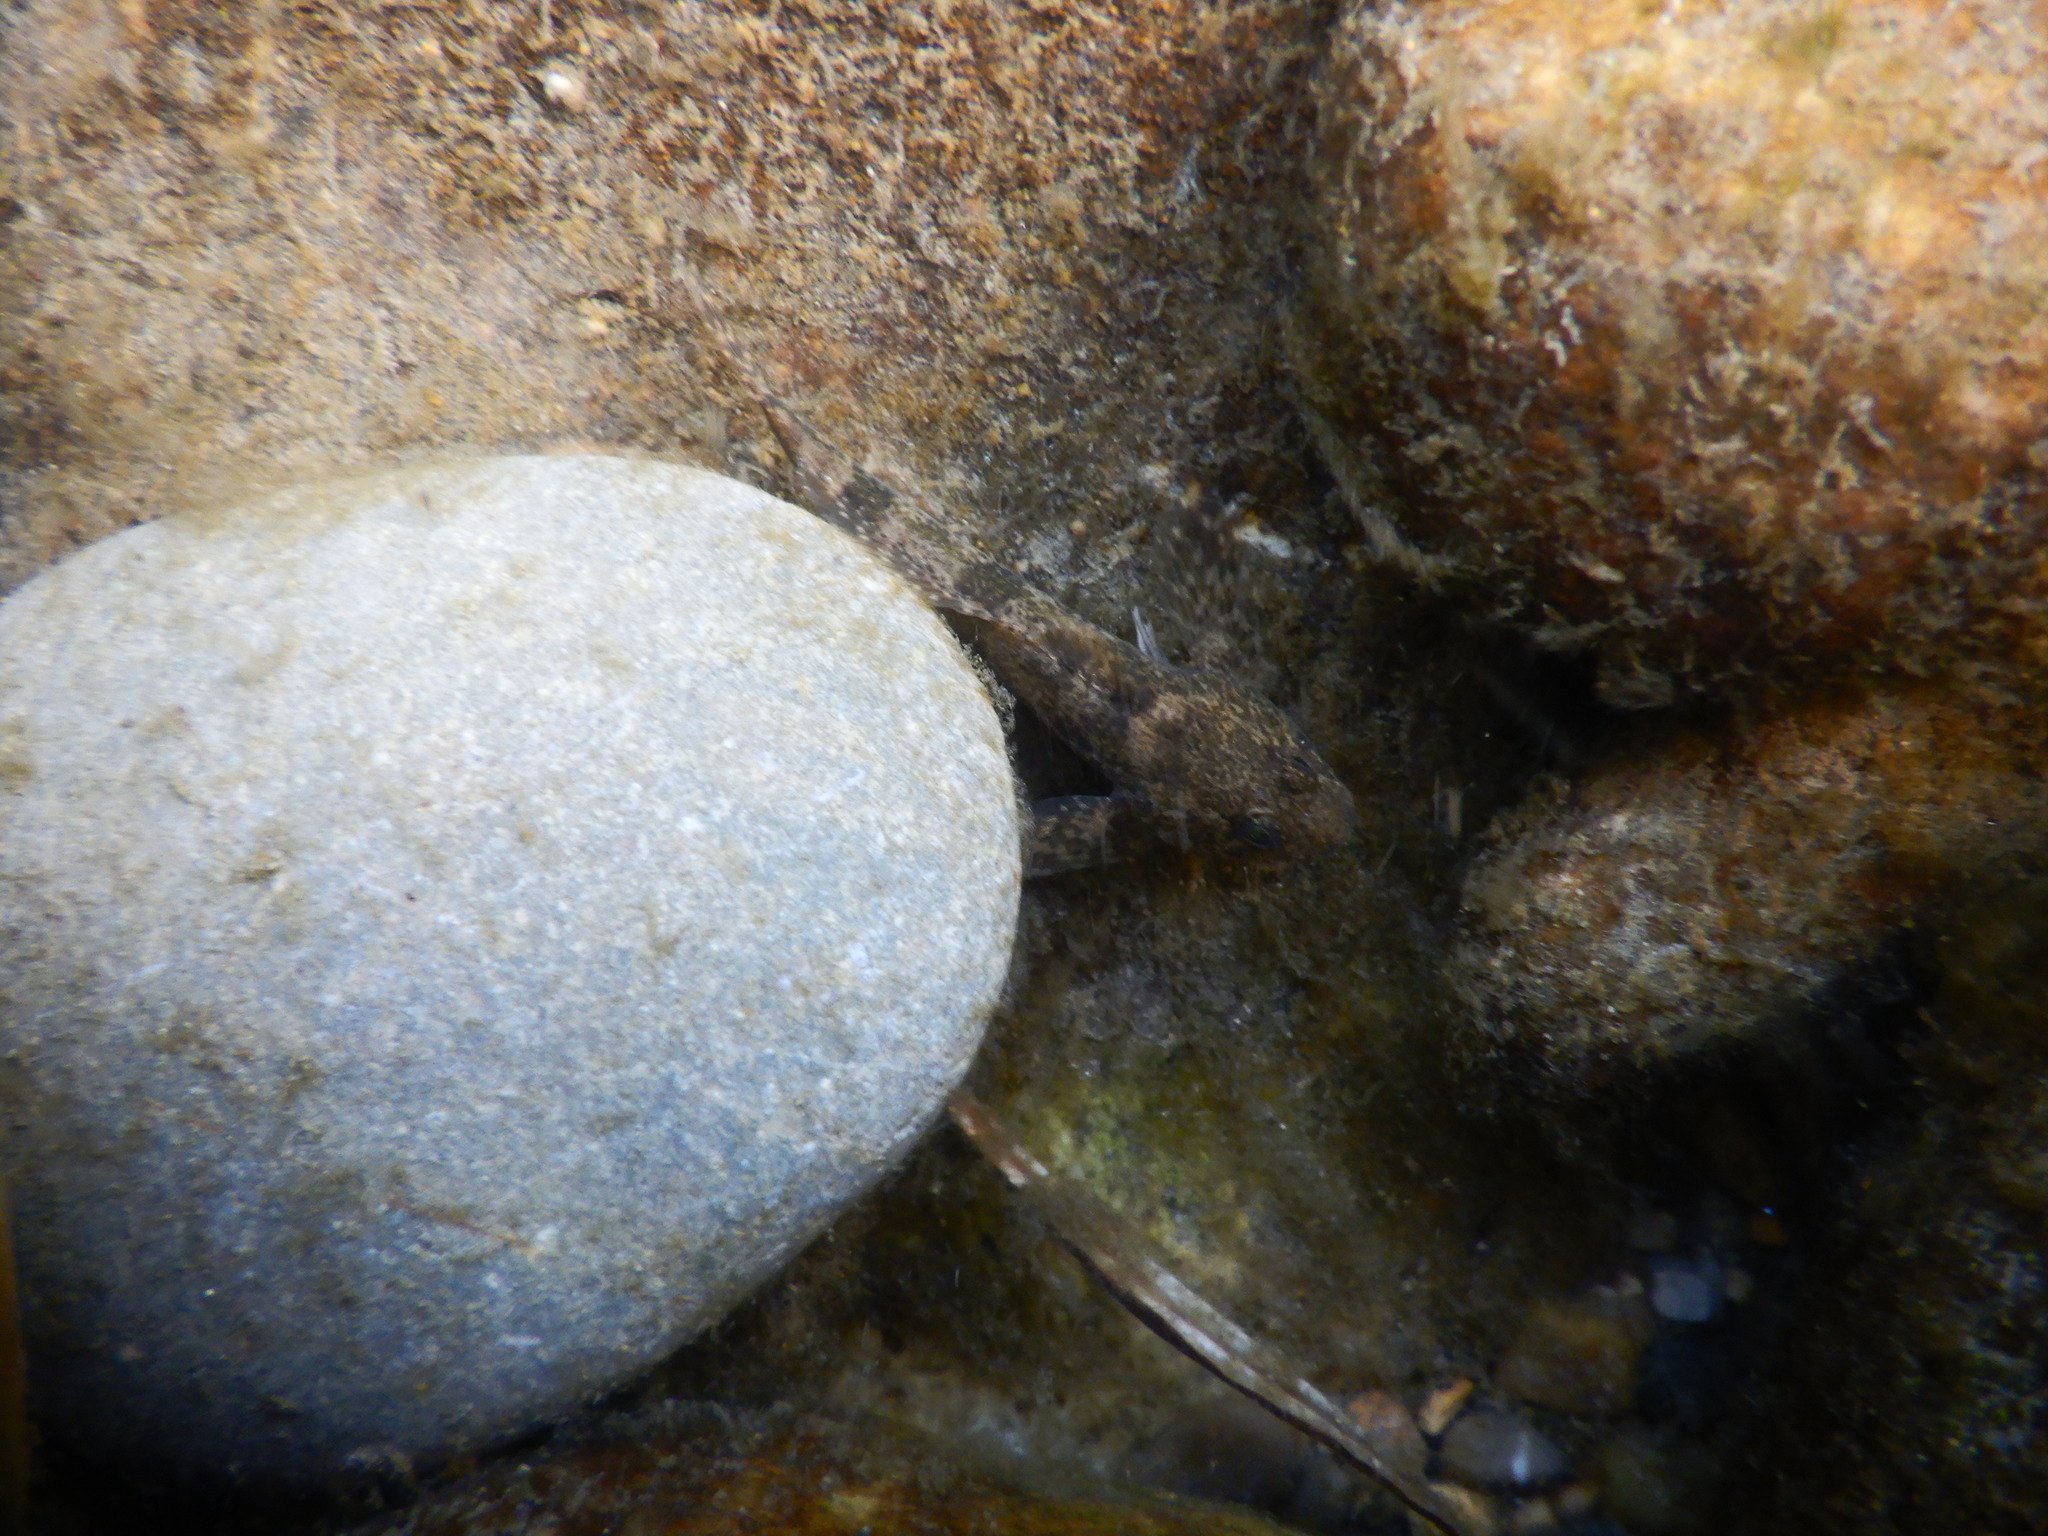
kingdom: Animalia
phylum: Chordata
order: Scorpaeniformes
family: Cottidae
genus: Cottus
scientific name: Cottus gobio
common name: Bullhead
